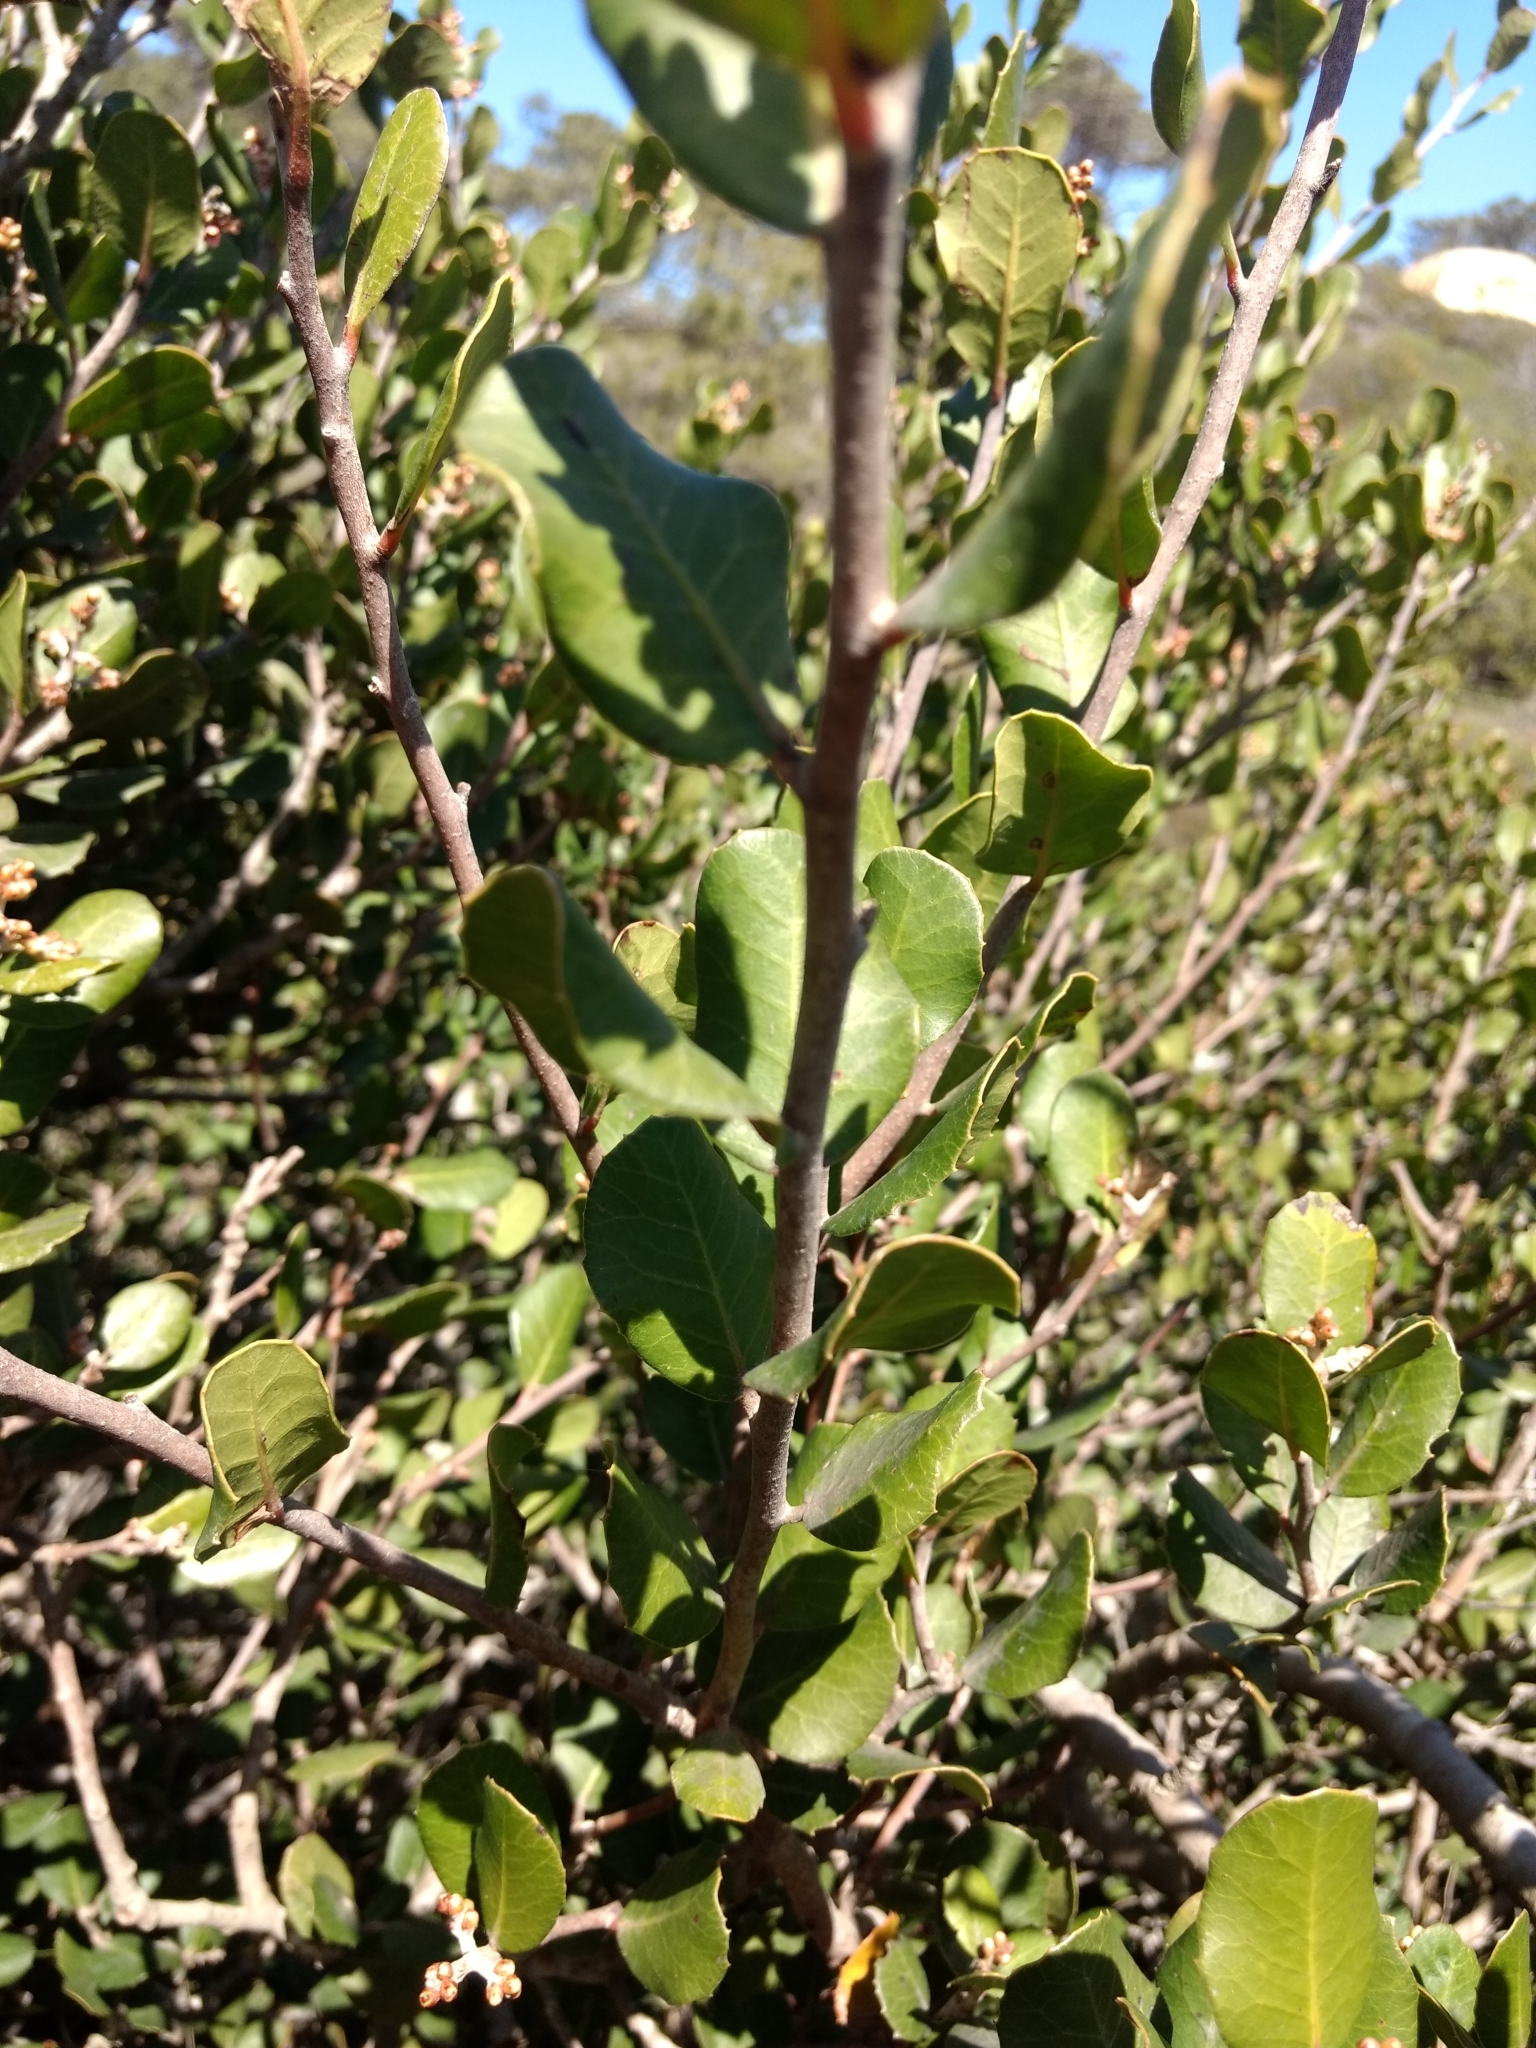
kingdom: Plantae
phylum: Tracheophyta
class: Magnoliopsida
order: Sapindales
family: Anacardiaceae
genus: Rhus
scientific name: Rhus integrifolia
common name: Lemonade sumac
